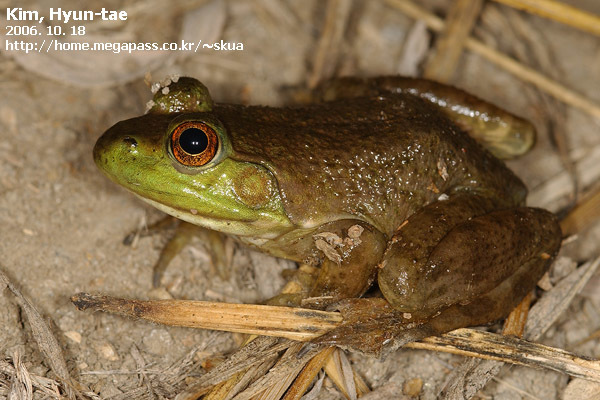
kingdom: Animalia
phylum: Chordata
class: Amphibia
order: Anura
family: Ranidae
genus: Lithobates
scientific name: Lithobates catesbeianus
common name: American bullfrog
